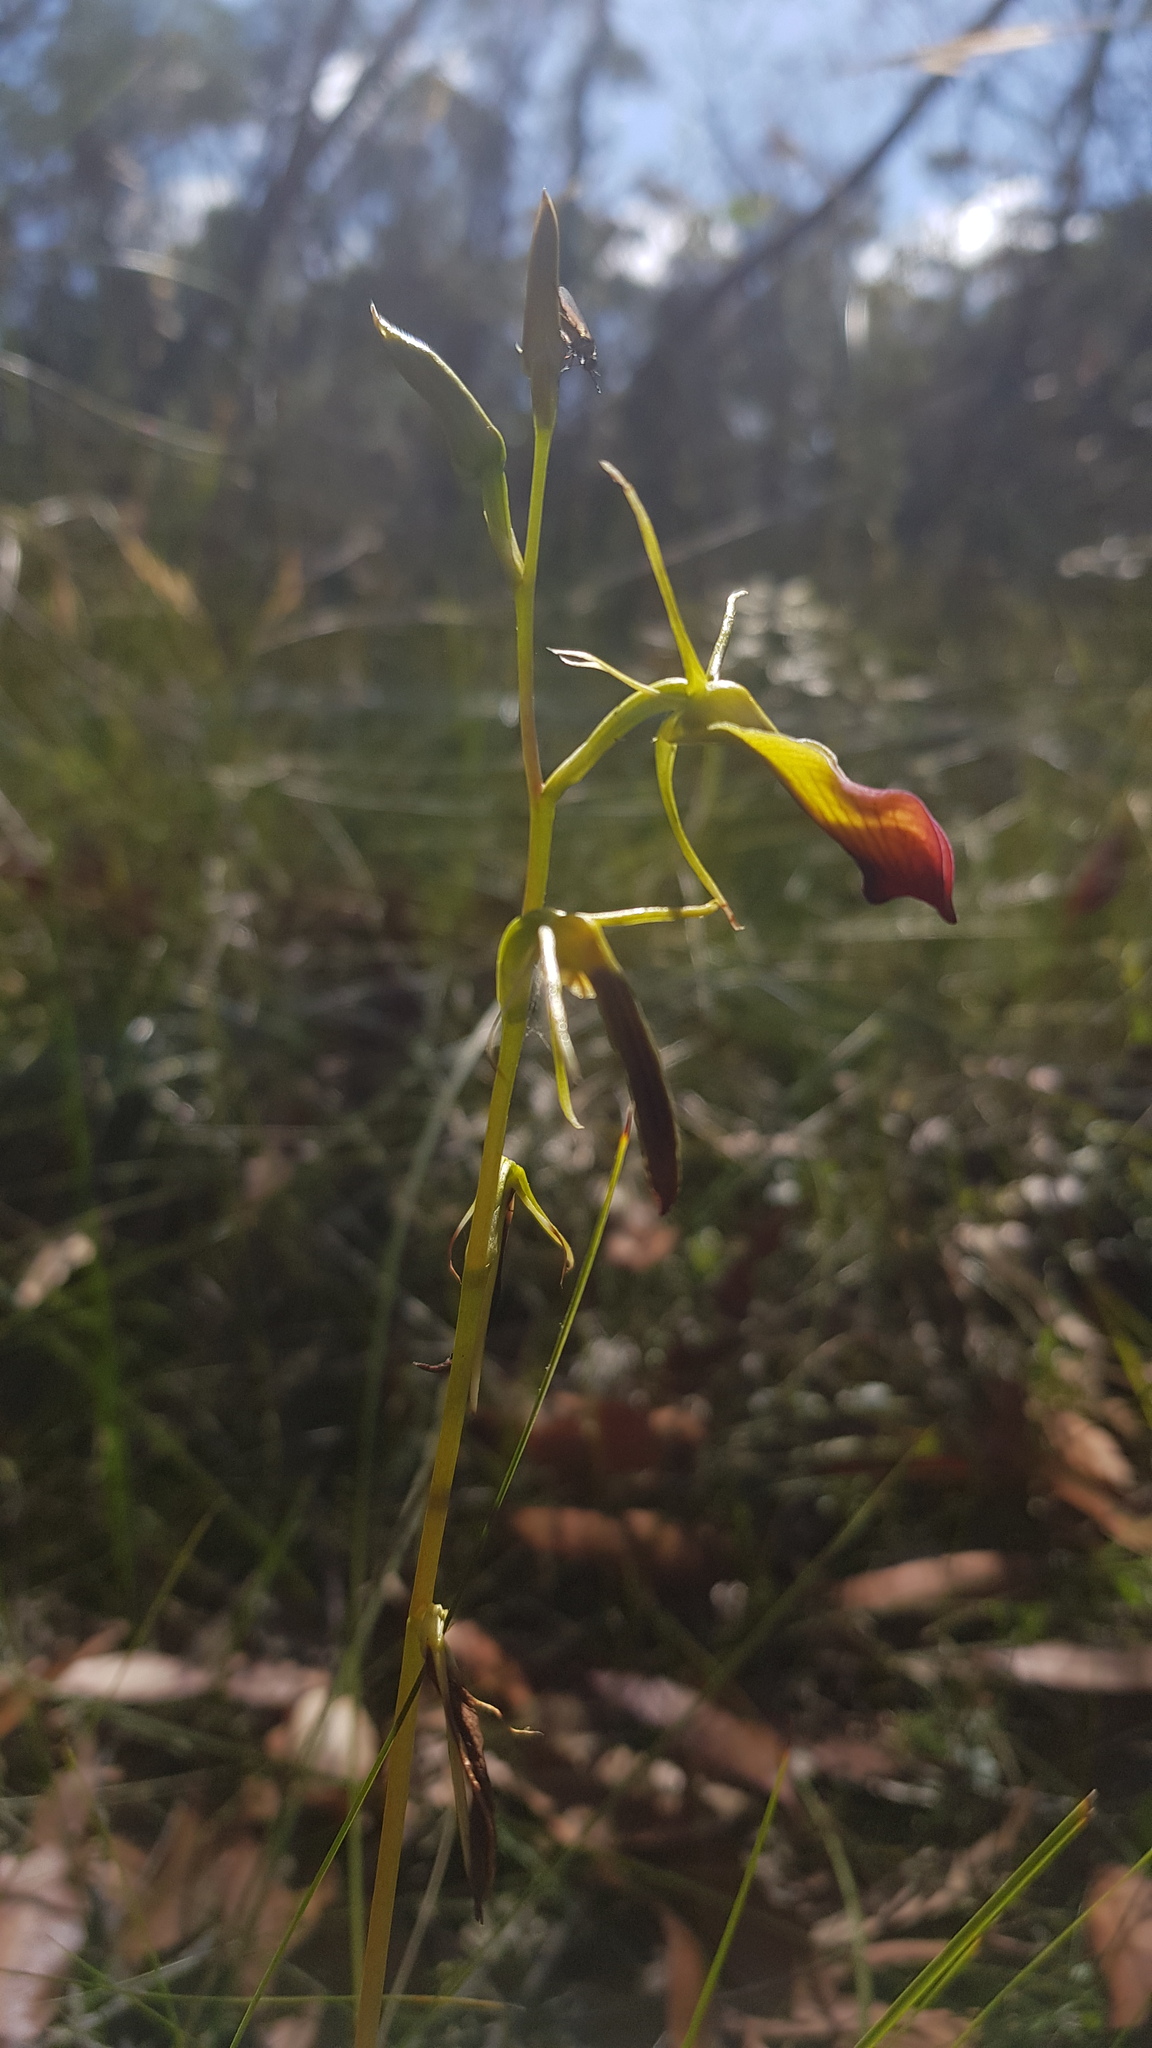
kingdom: Plantae
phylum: Tracheophyta
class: Liliopsida
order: Asparagales
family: Orchidaceae
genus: Cryptostylis
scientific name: Cryptostylis subulata
